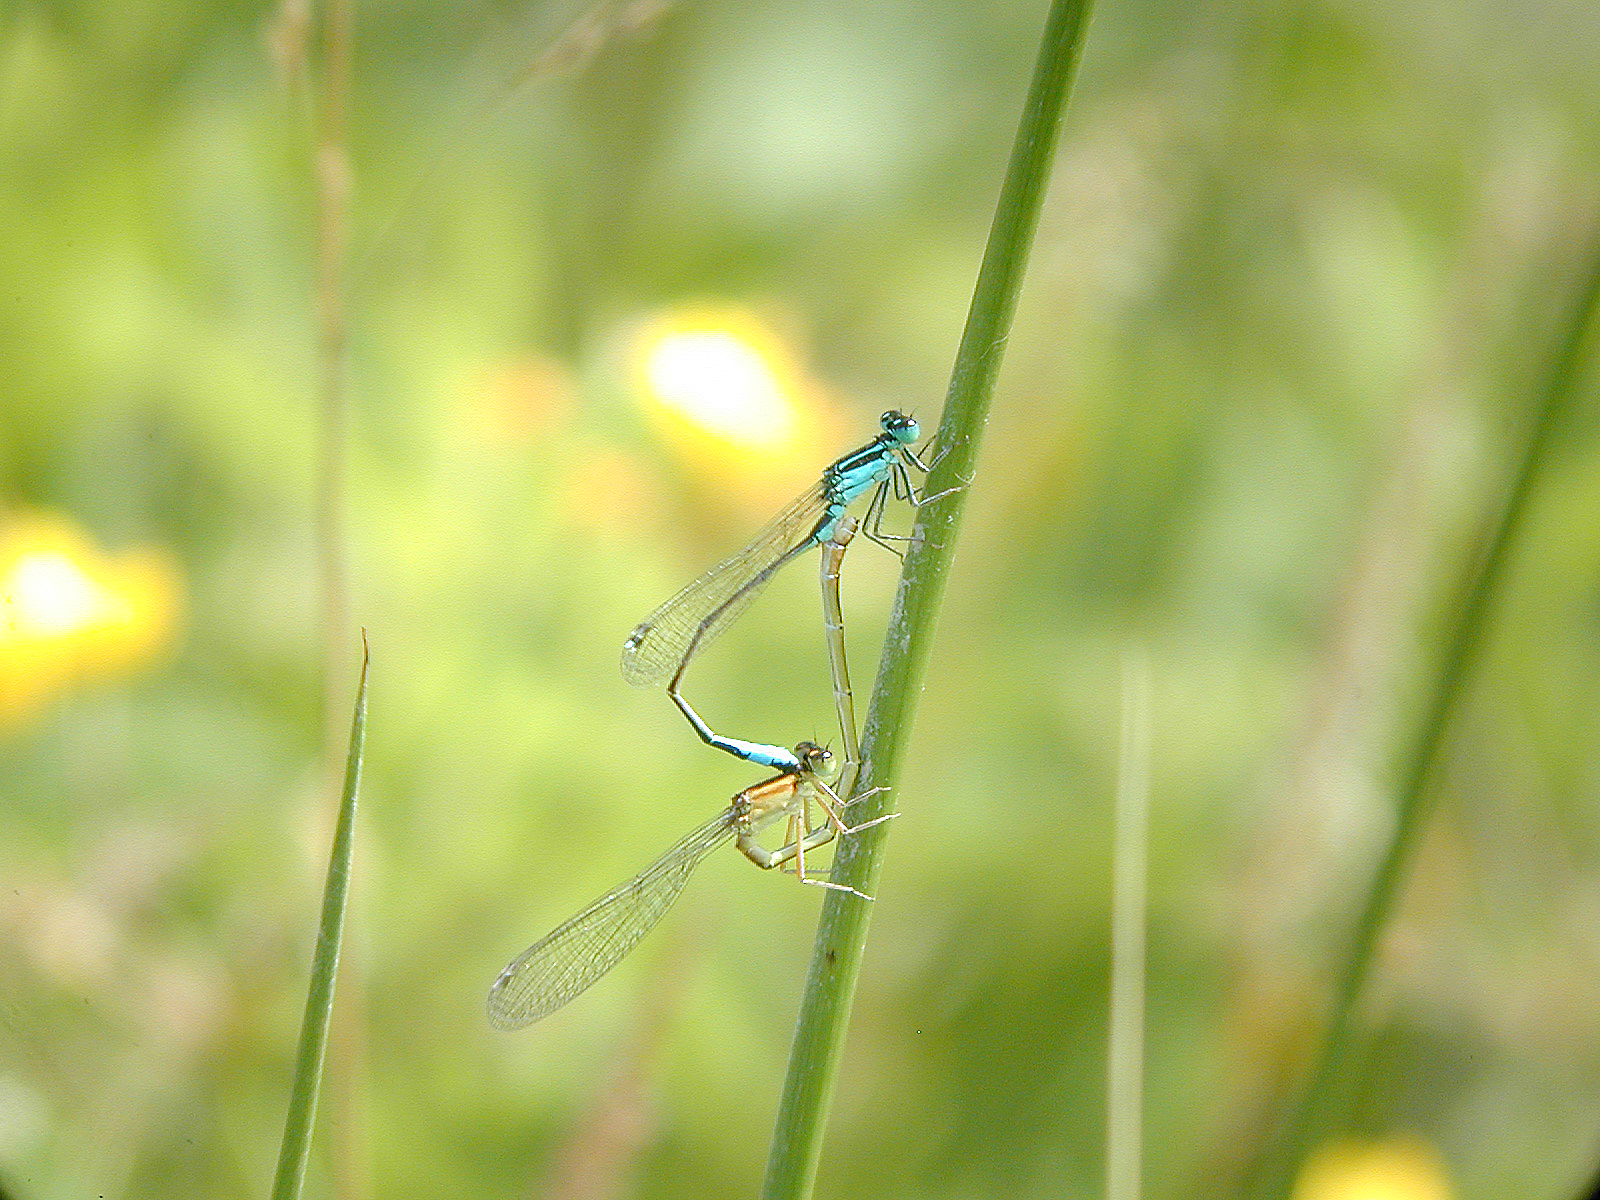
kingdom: Animalia
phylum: Arthropoda
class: Insecta
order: Odonata
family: Coenagrionidae
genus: Ischnura
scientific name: Ischnura elegans
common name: Blue-tailed damselfly
